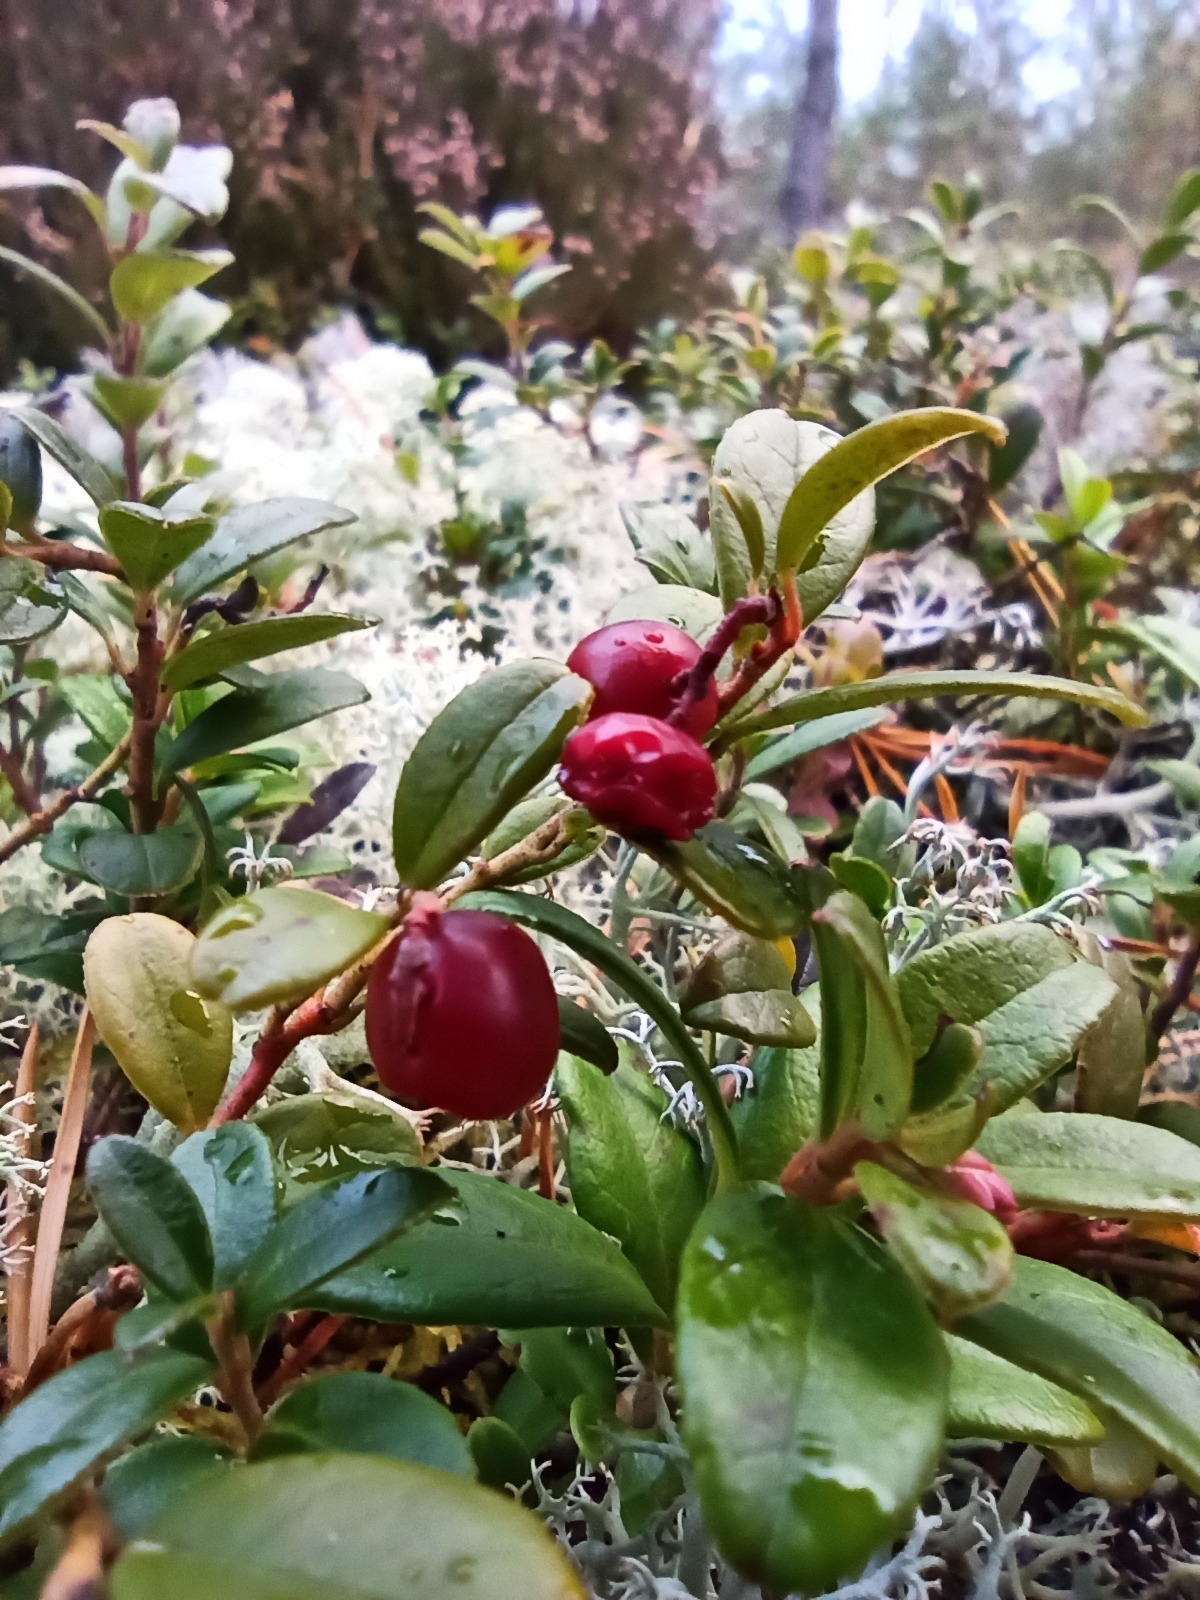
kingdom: Plantae
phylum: Tracheophyta
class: Magnoliopsida
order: Ericales
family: Ericaceae
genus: Vaccinium
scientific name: Vaccinium vitis-idaea
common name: Cowberry
